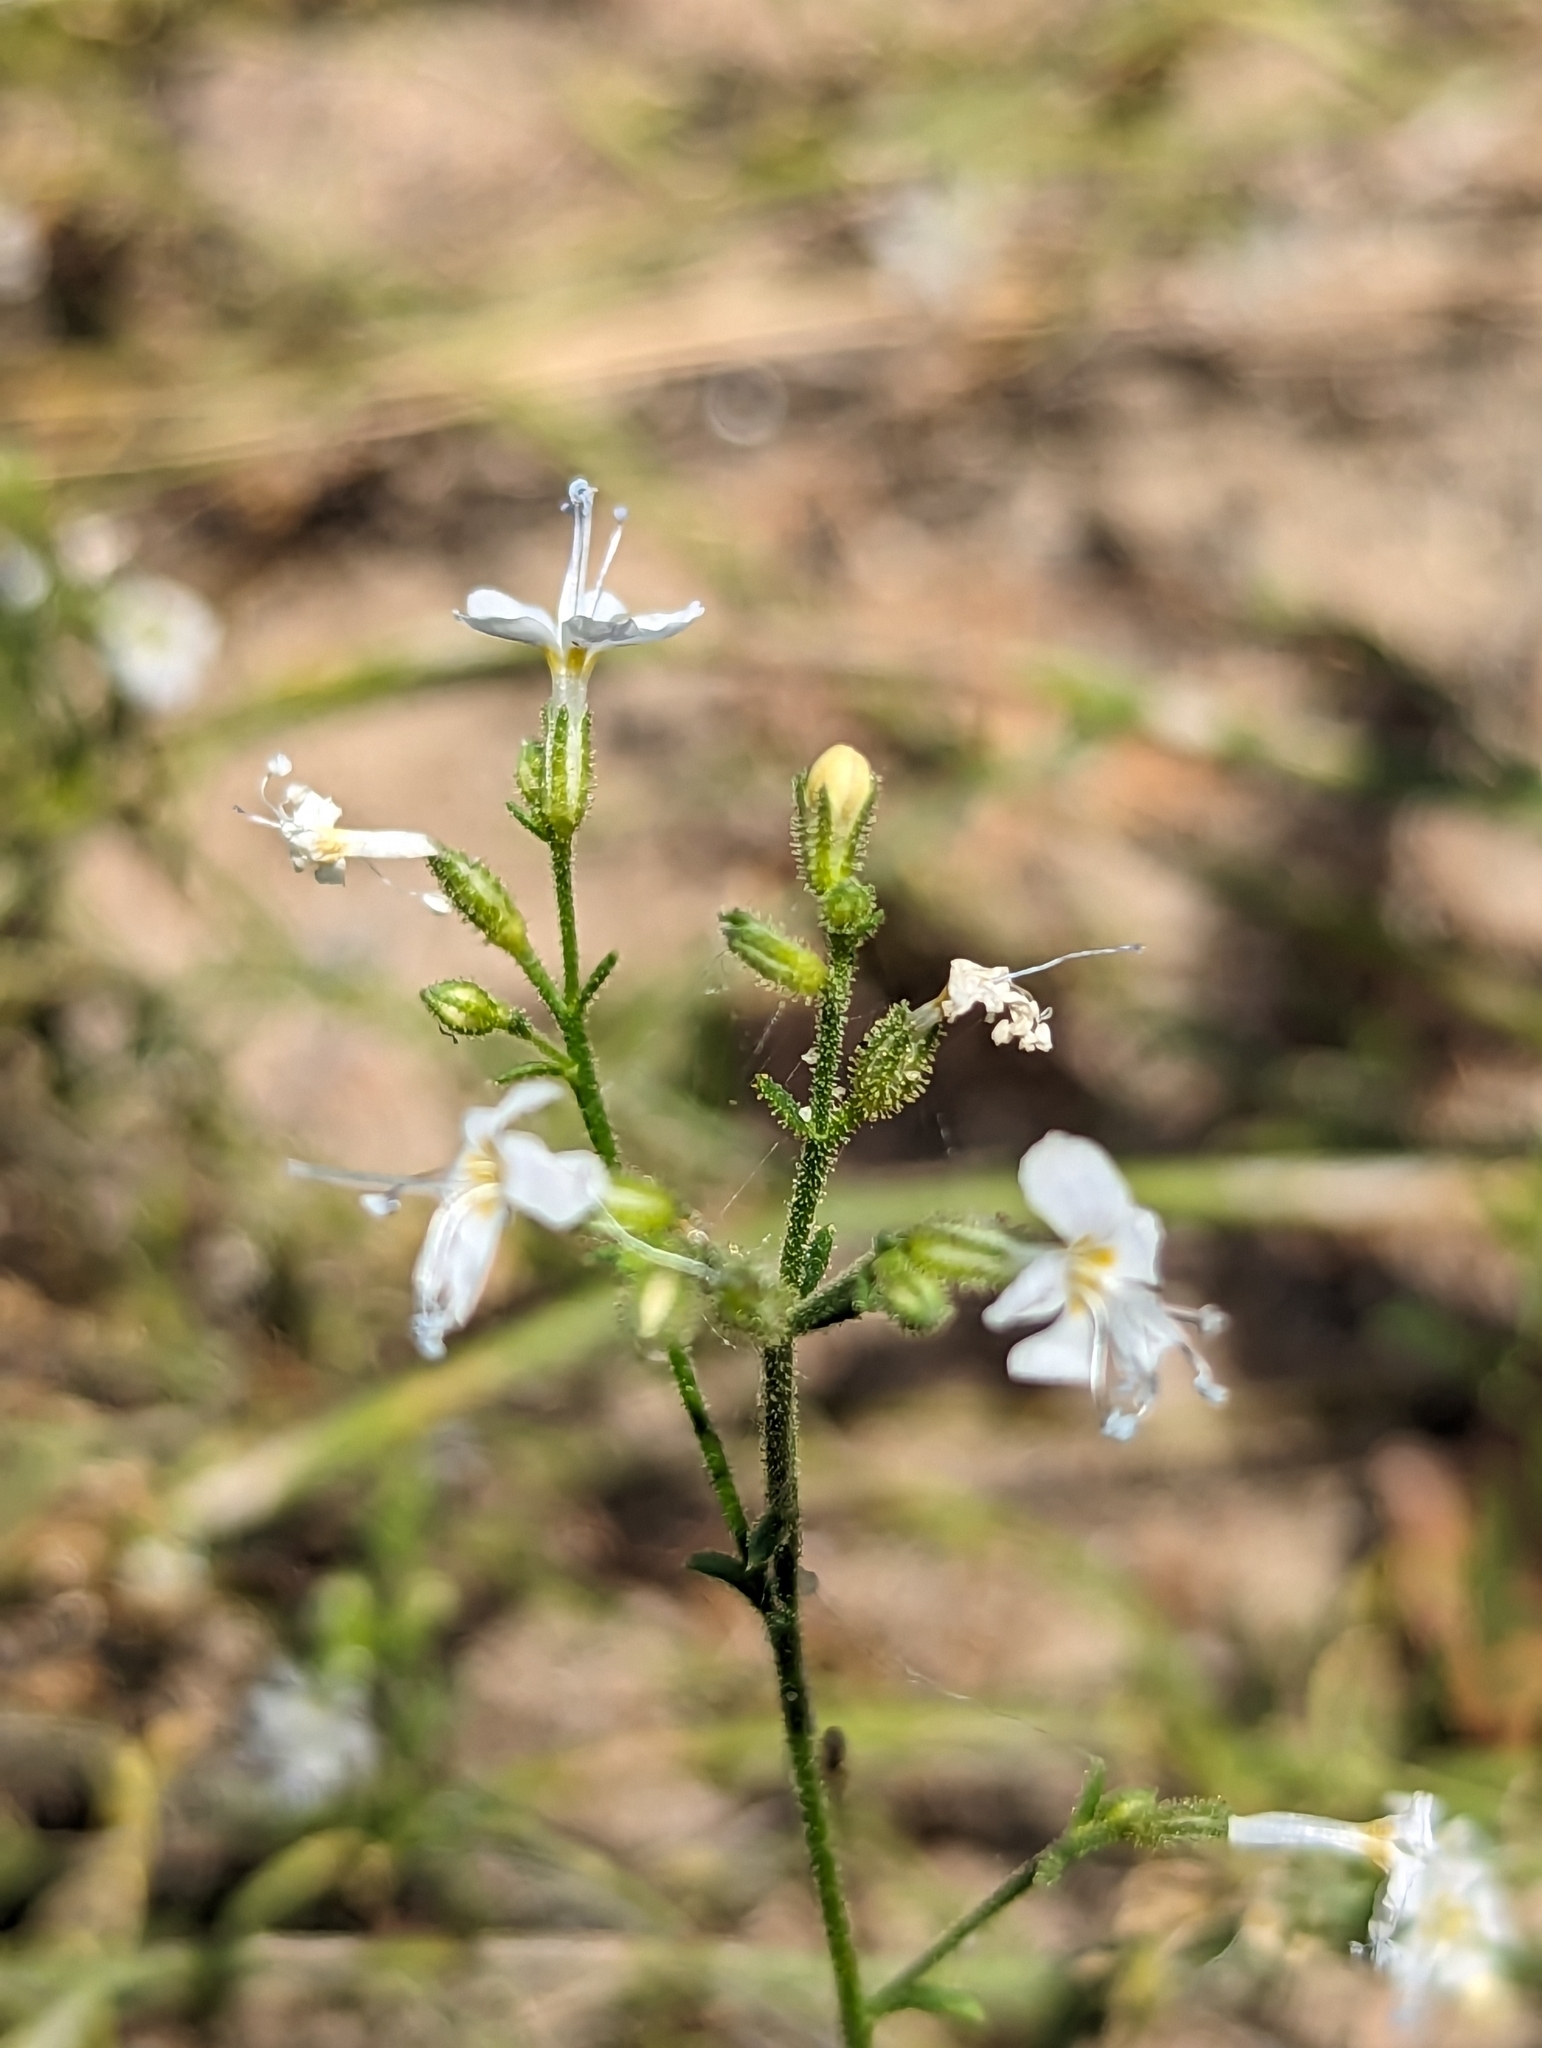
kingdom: Plantae
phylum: Tracheophyta
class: Magnoliopsida
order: Ericales
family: Polemoniaceae
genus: Aliciella
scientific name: Aliciella pinnatifida
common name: Sticky gilia
